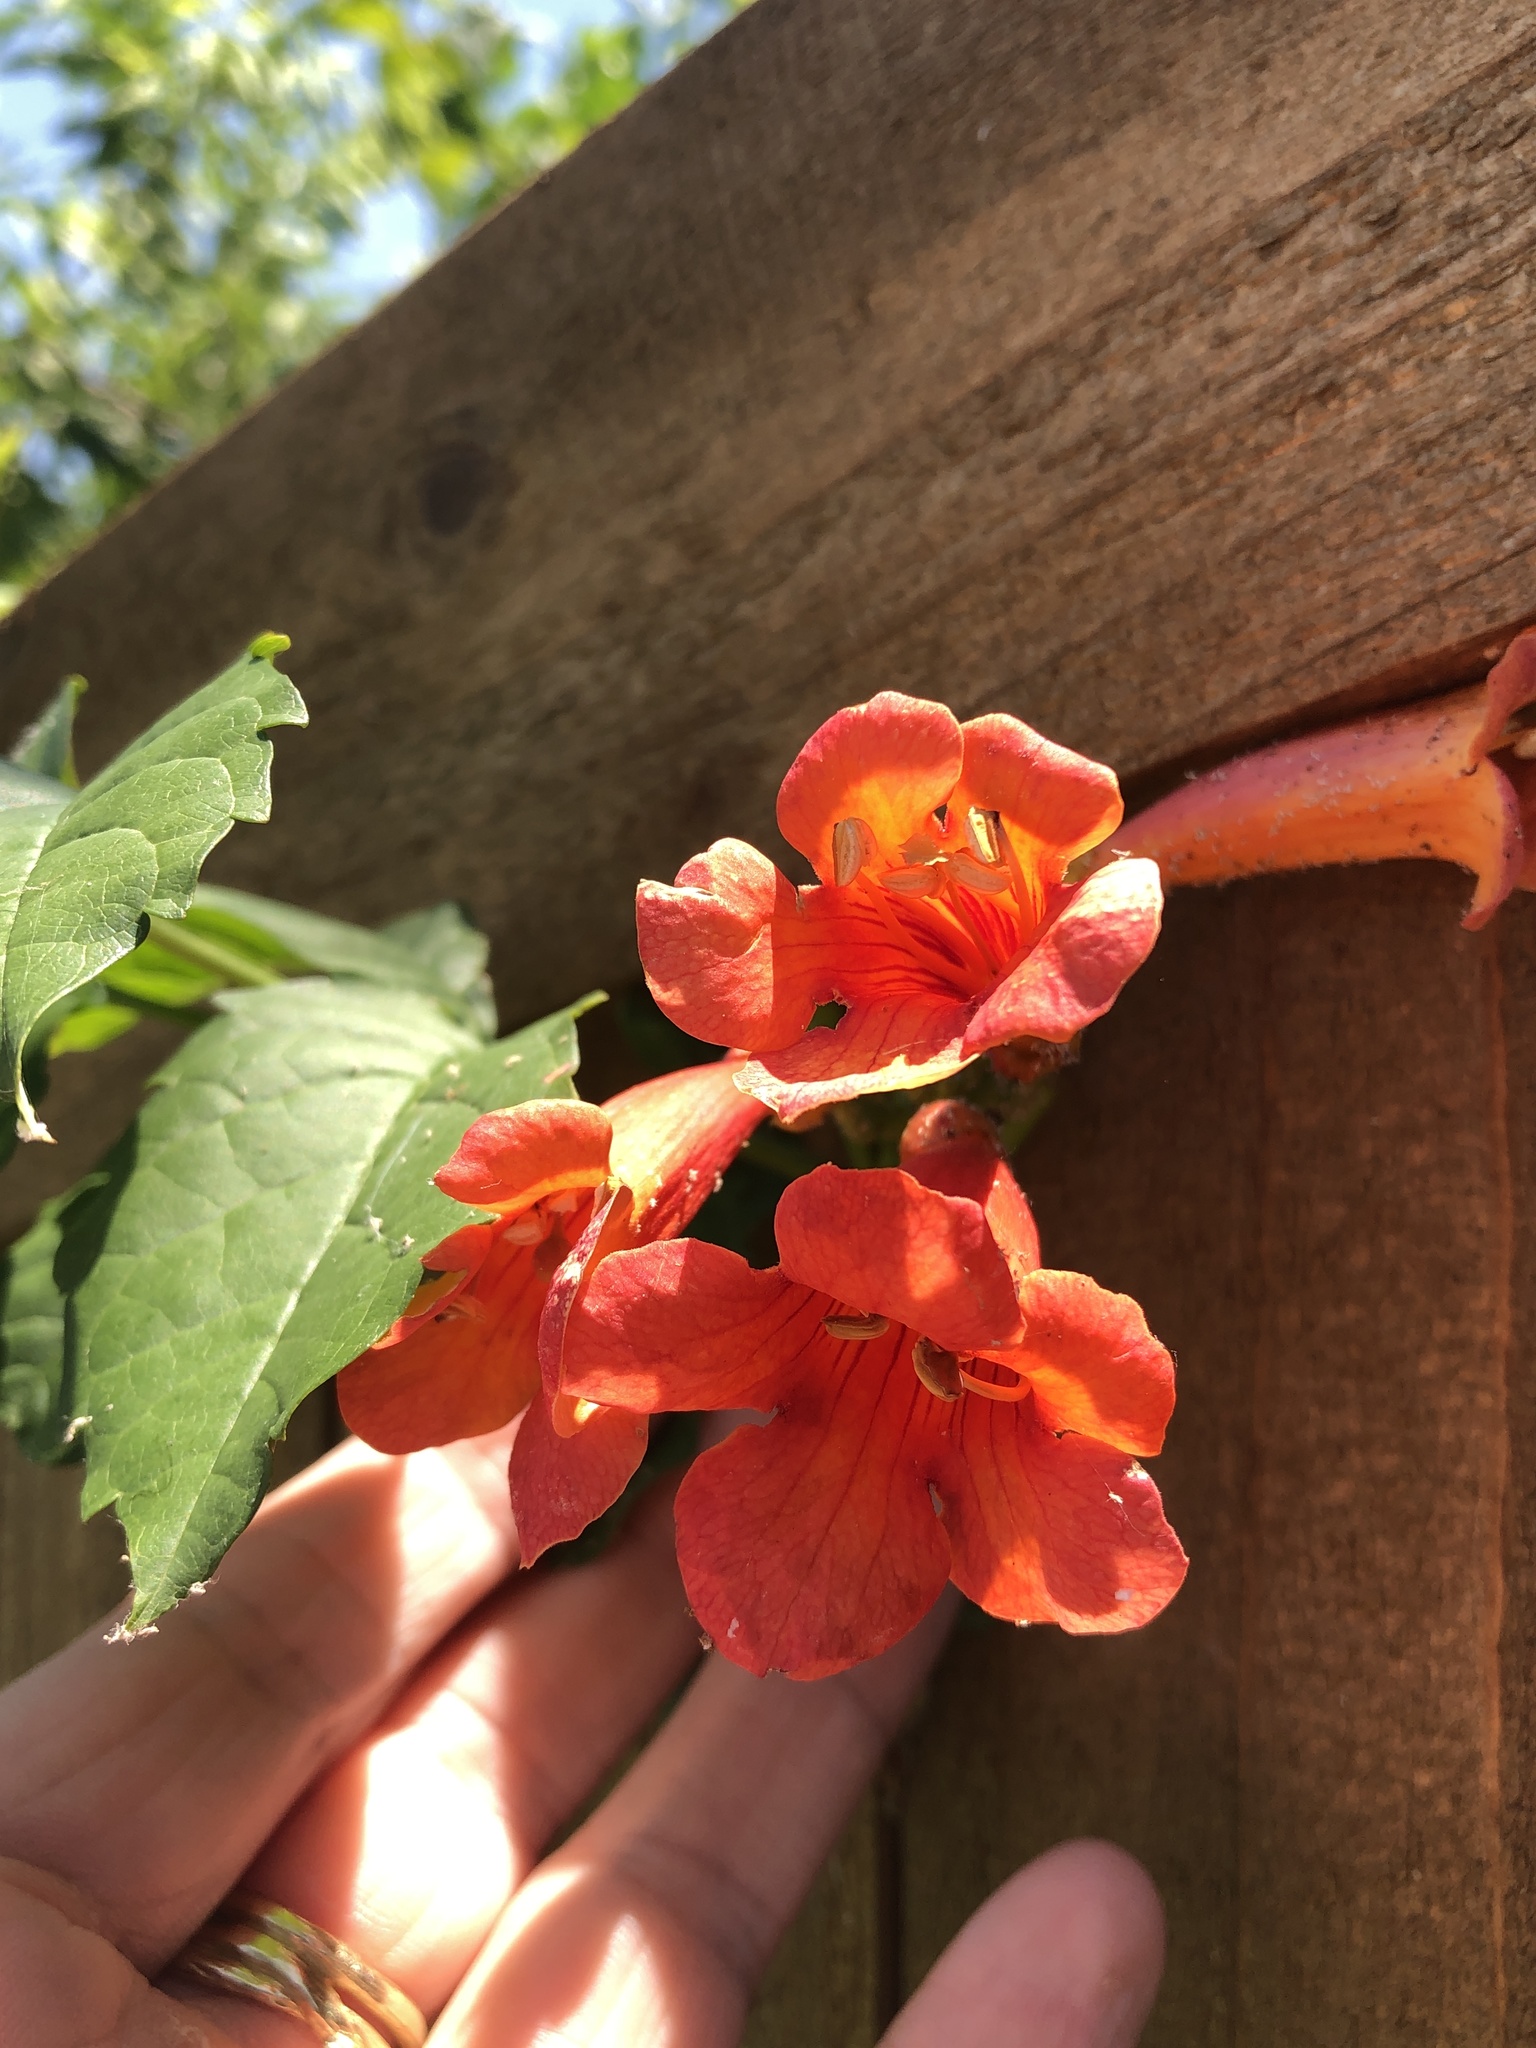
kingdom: Plantae
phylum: Tracheophyta
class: Magnoliopsida
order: Lamiales
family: Bignoniaceae
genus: Campsis
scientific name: Campsis radicans
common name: Trumpet-creeper
